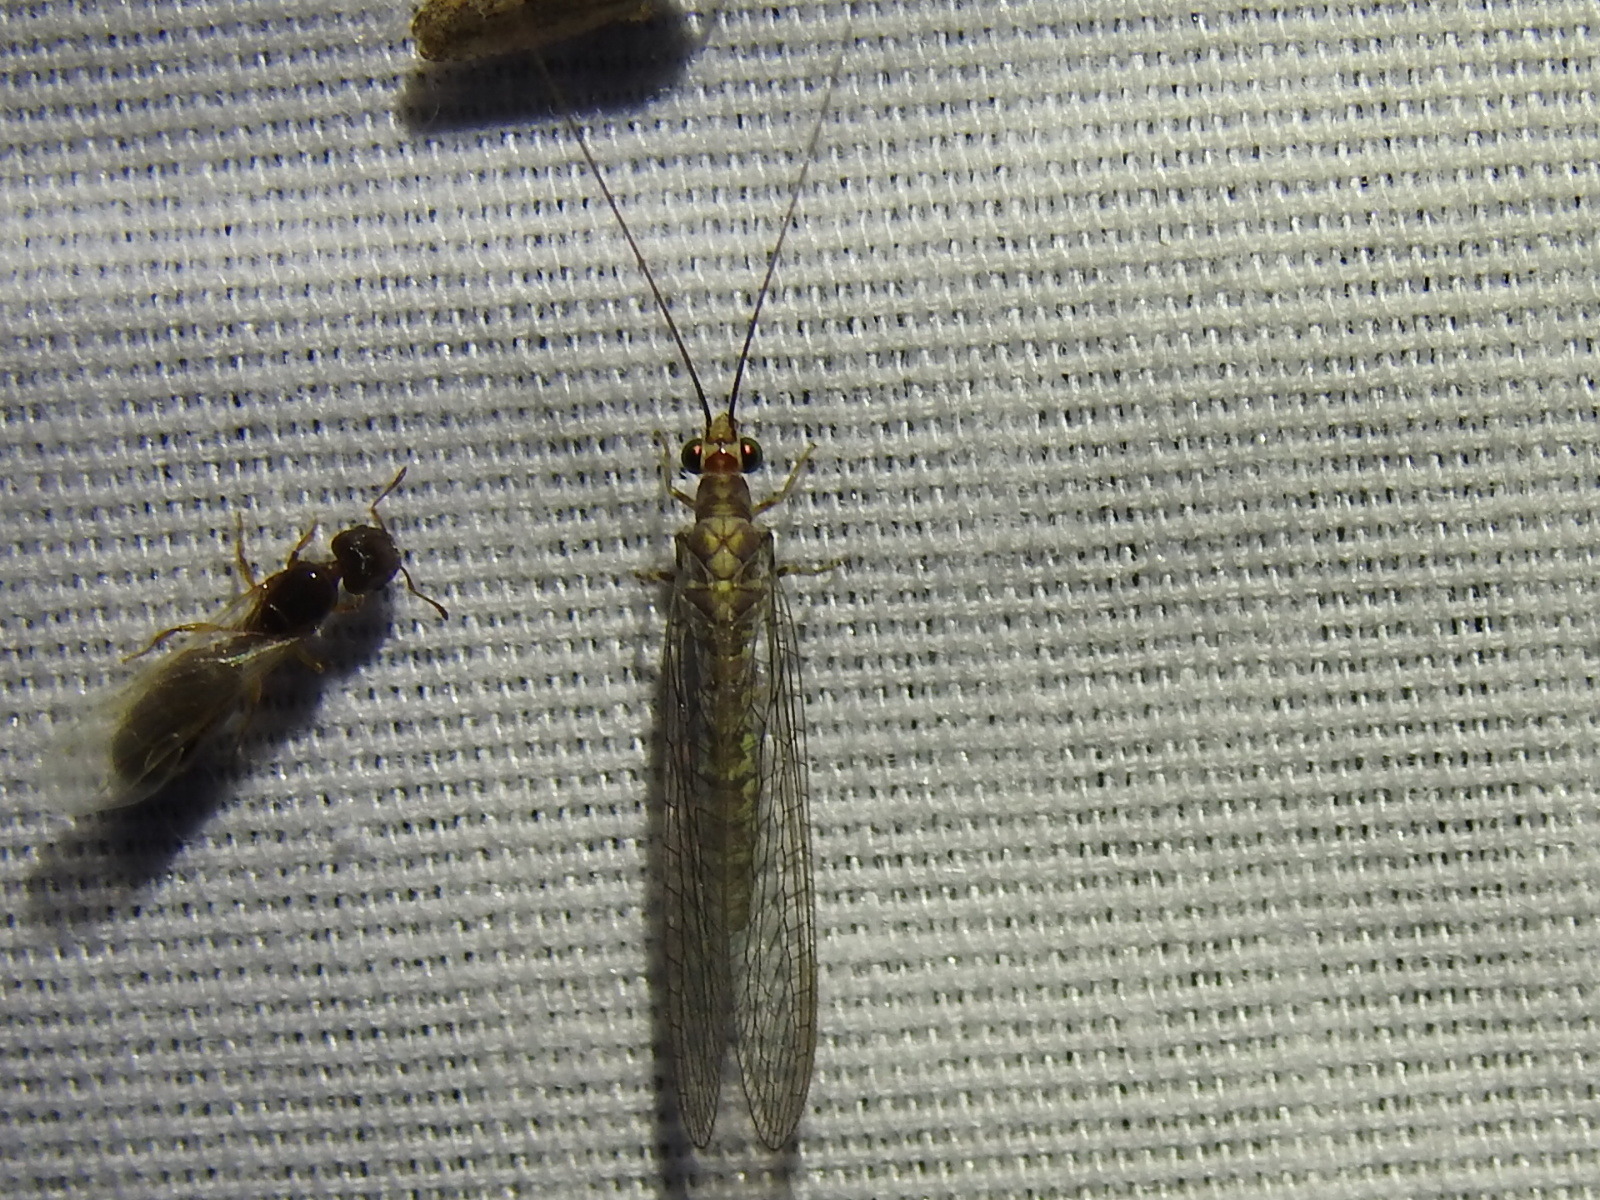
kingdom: Animalia
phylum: Arthropoda
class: Insecta
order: Neuroptera
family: Chrysopidae
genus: Yumachrysa
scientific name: Yumachrysa apache
